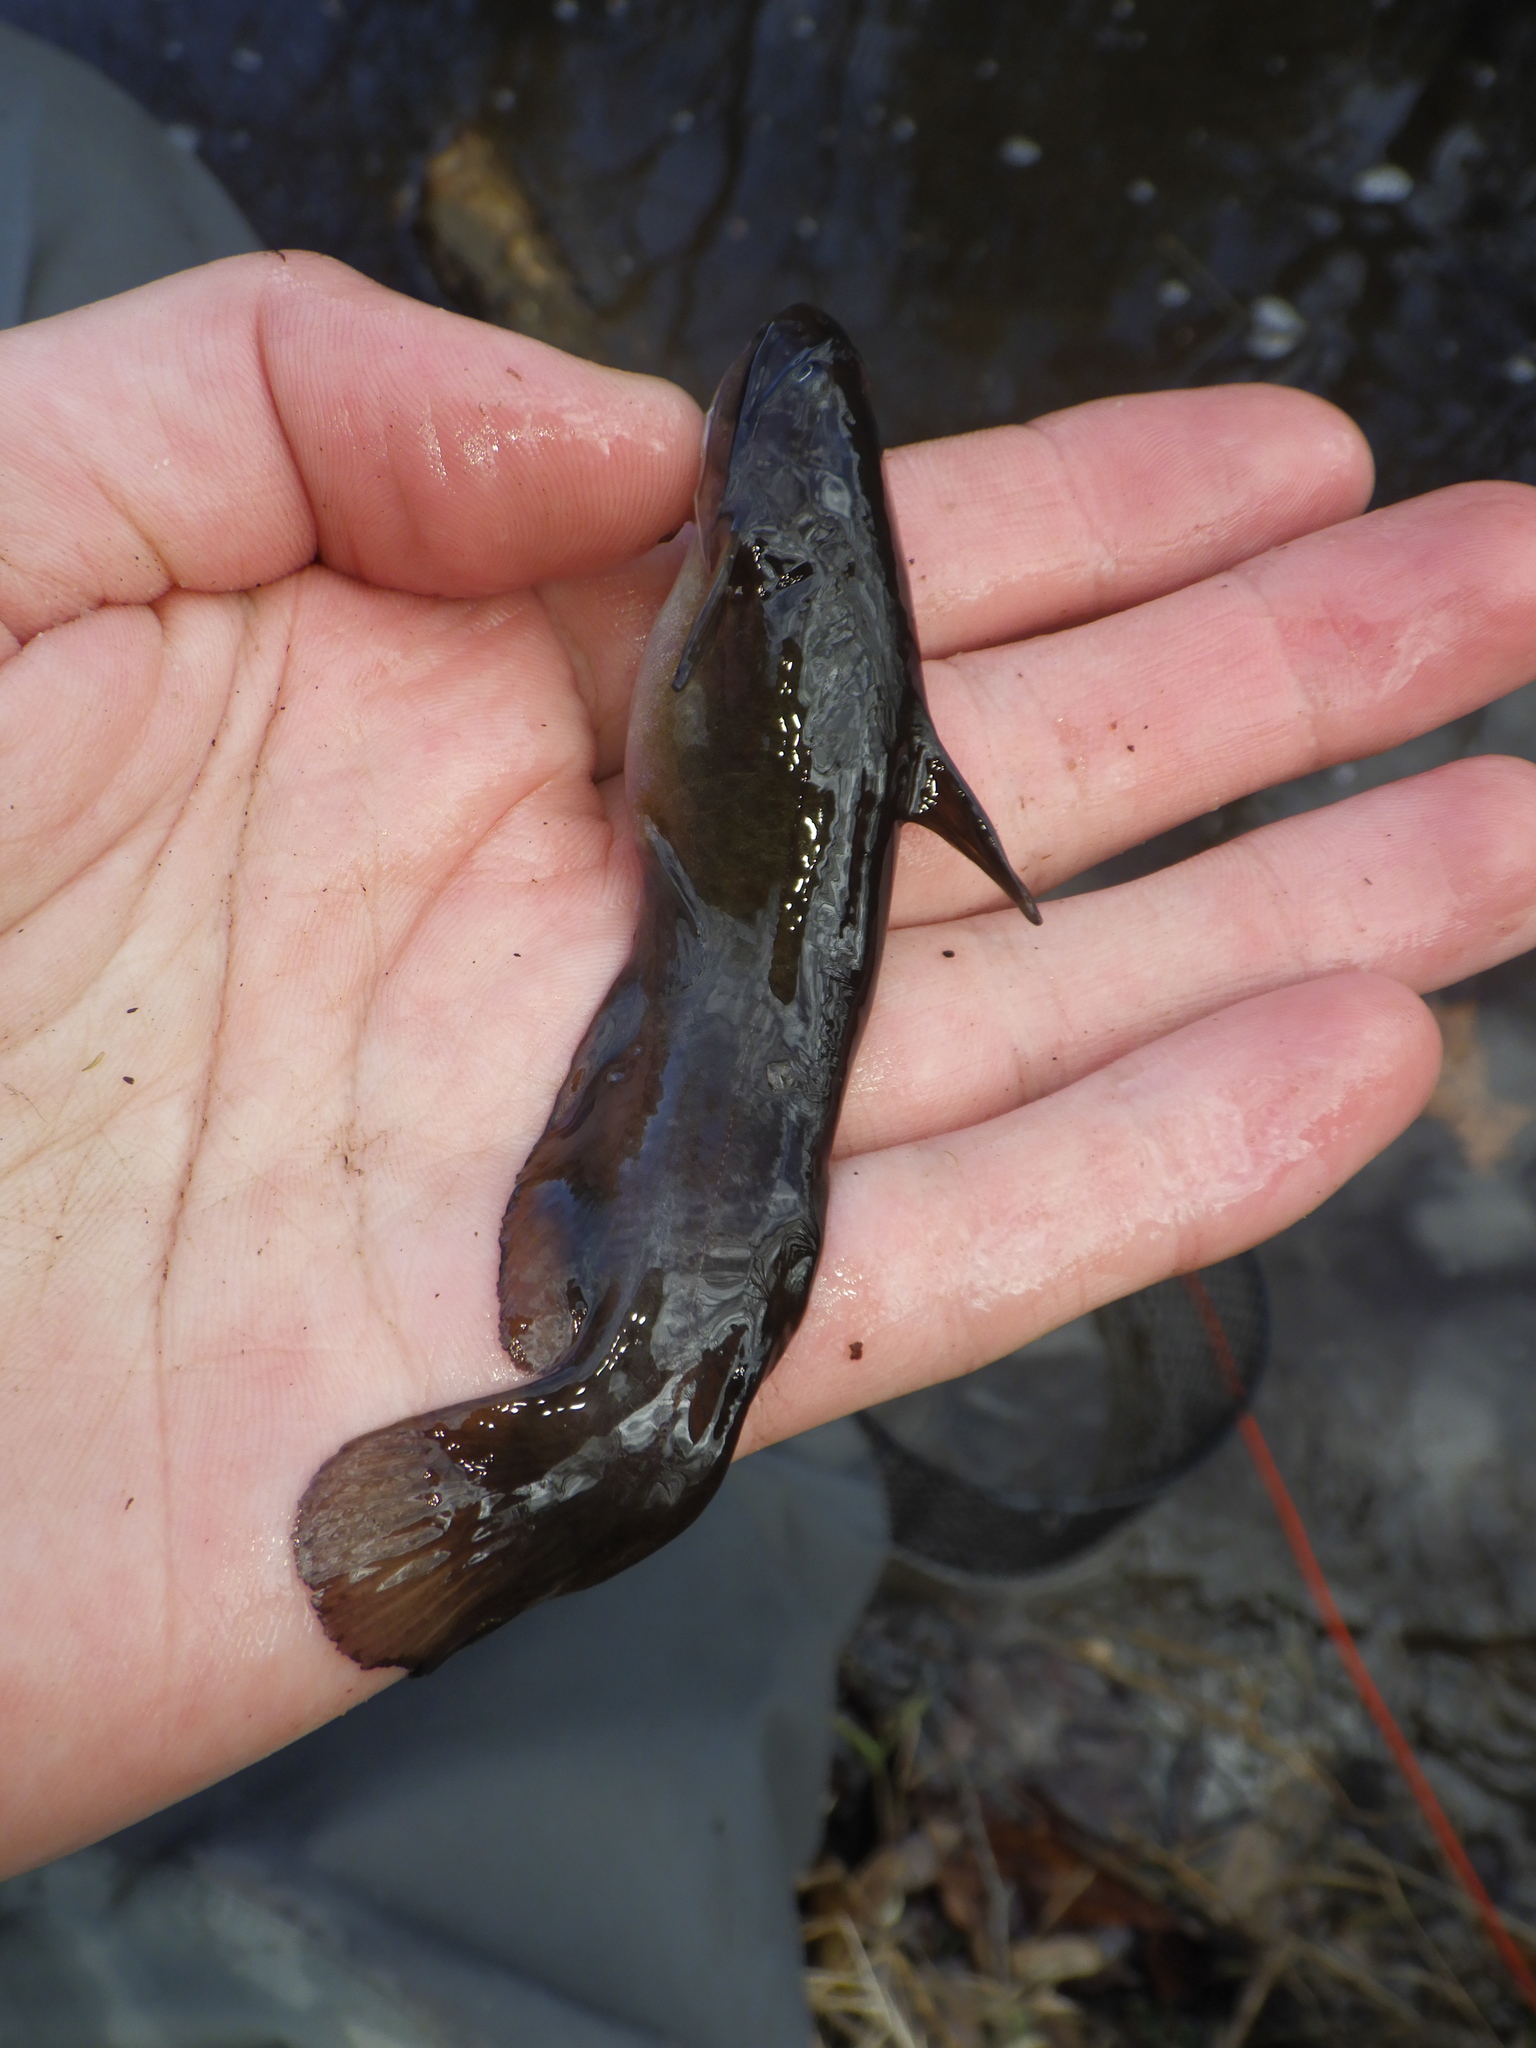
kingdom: Animalia
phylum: Chordata
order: Siluriformes
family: Ictaluridae
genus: Ameiurus
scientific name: Ameiurus natalis
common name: Yellow bullhead
